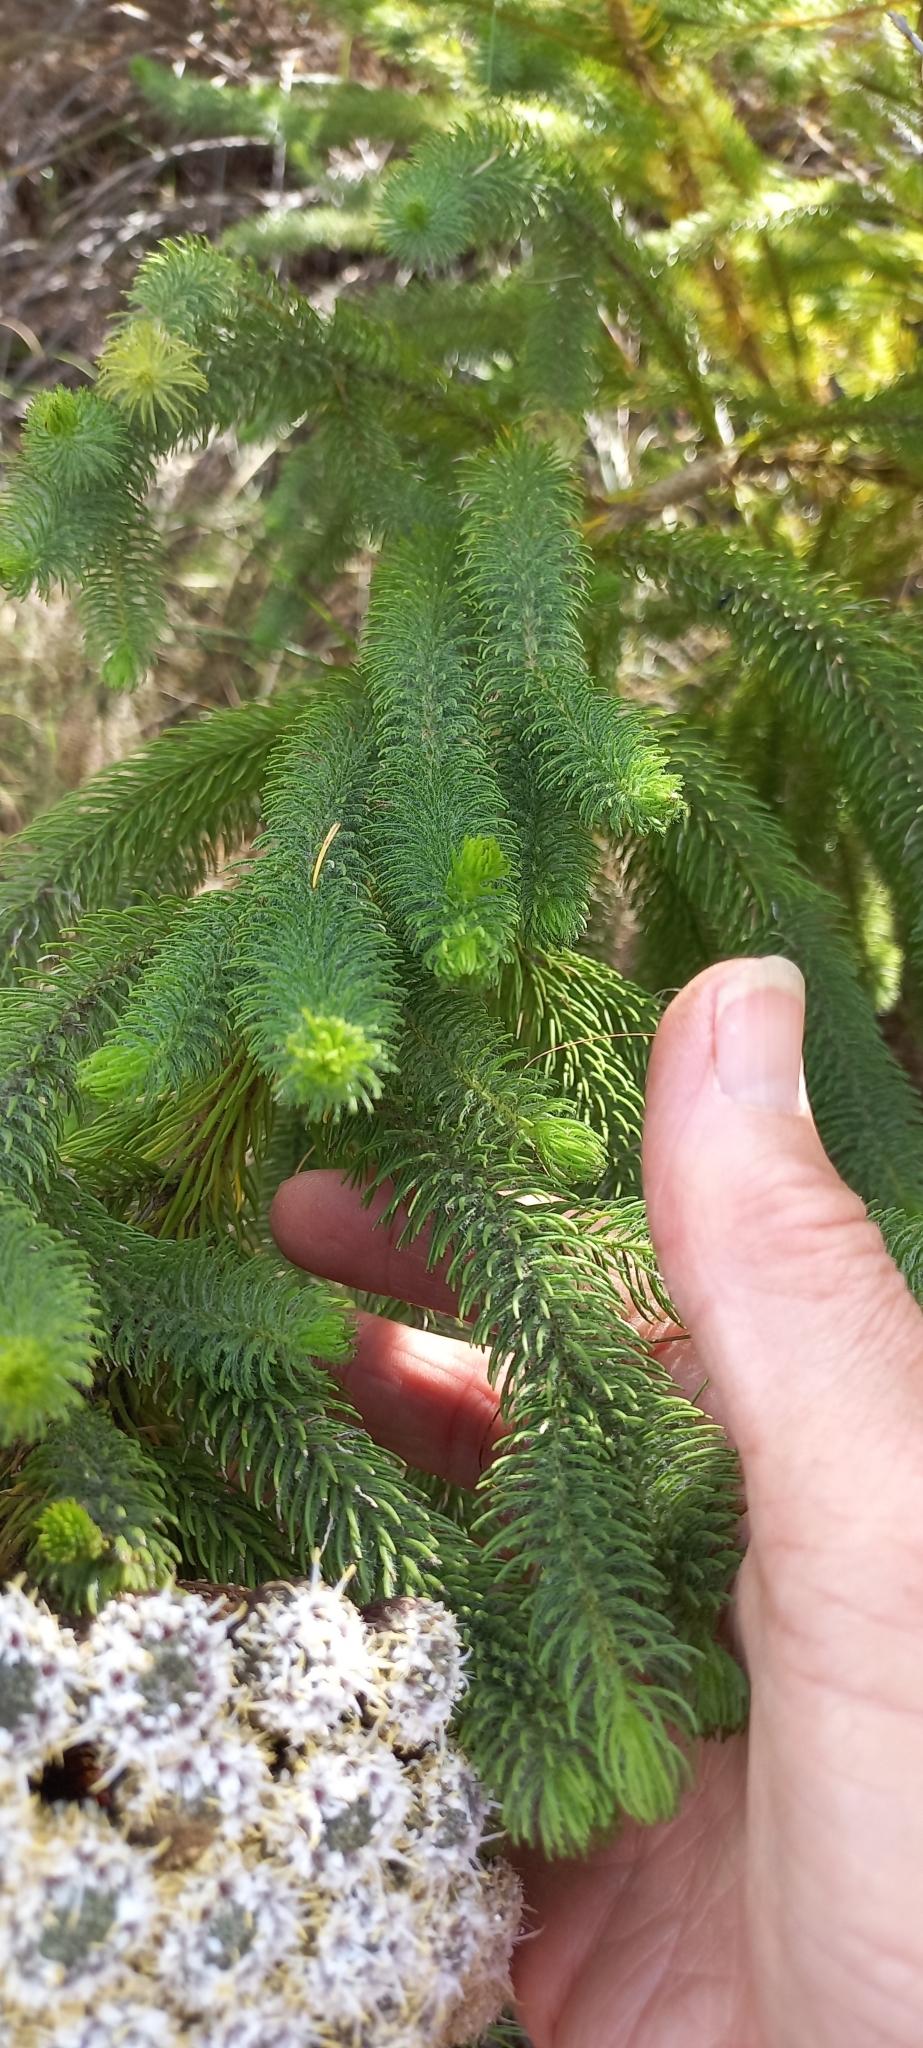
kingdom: Plantae
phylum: Tracheophyta
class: Magnoliopsida
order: Bruniales
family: Bruniaceae
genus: Berzelia
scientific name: Berzelia albiflora
